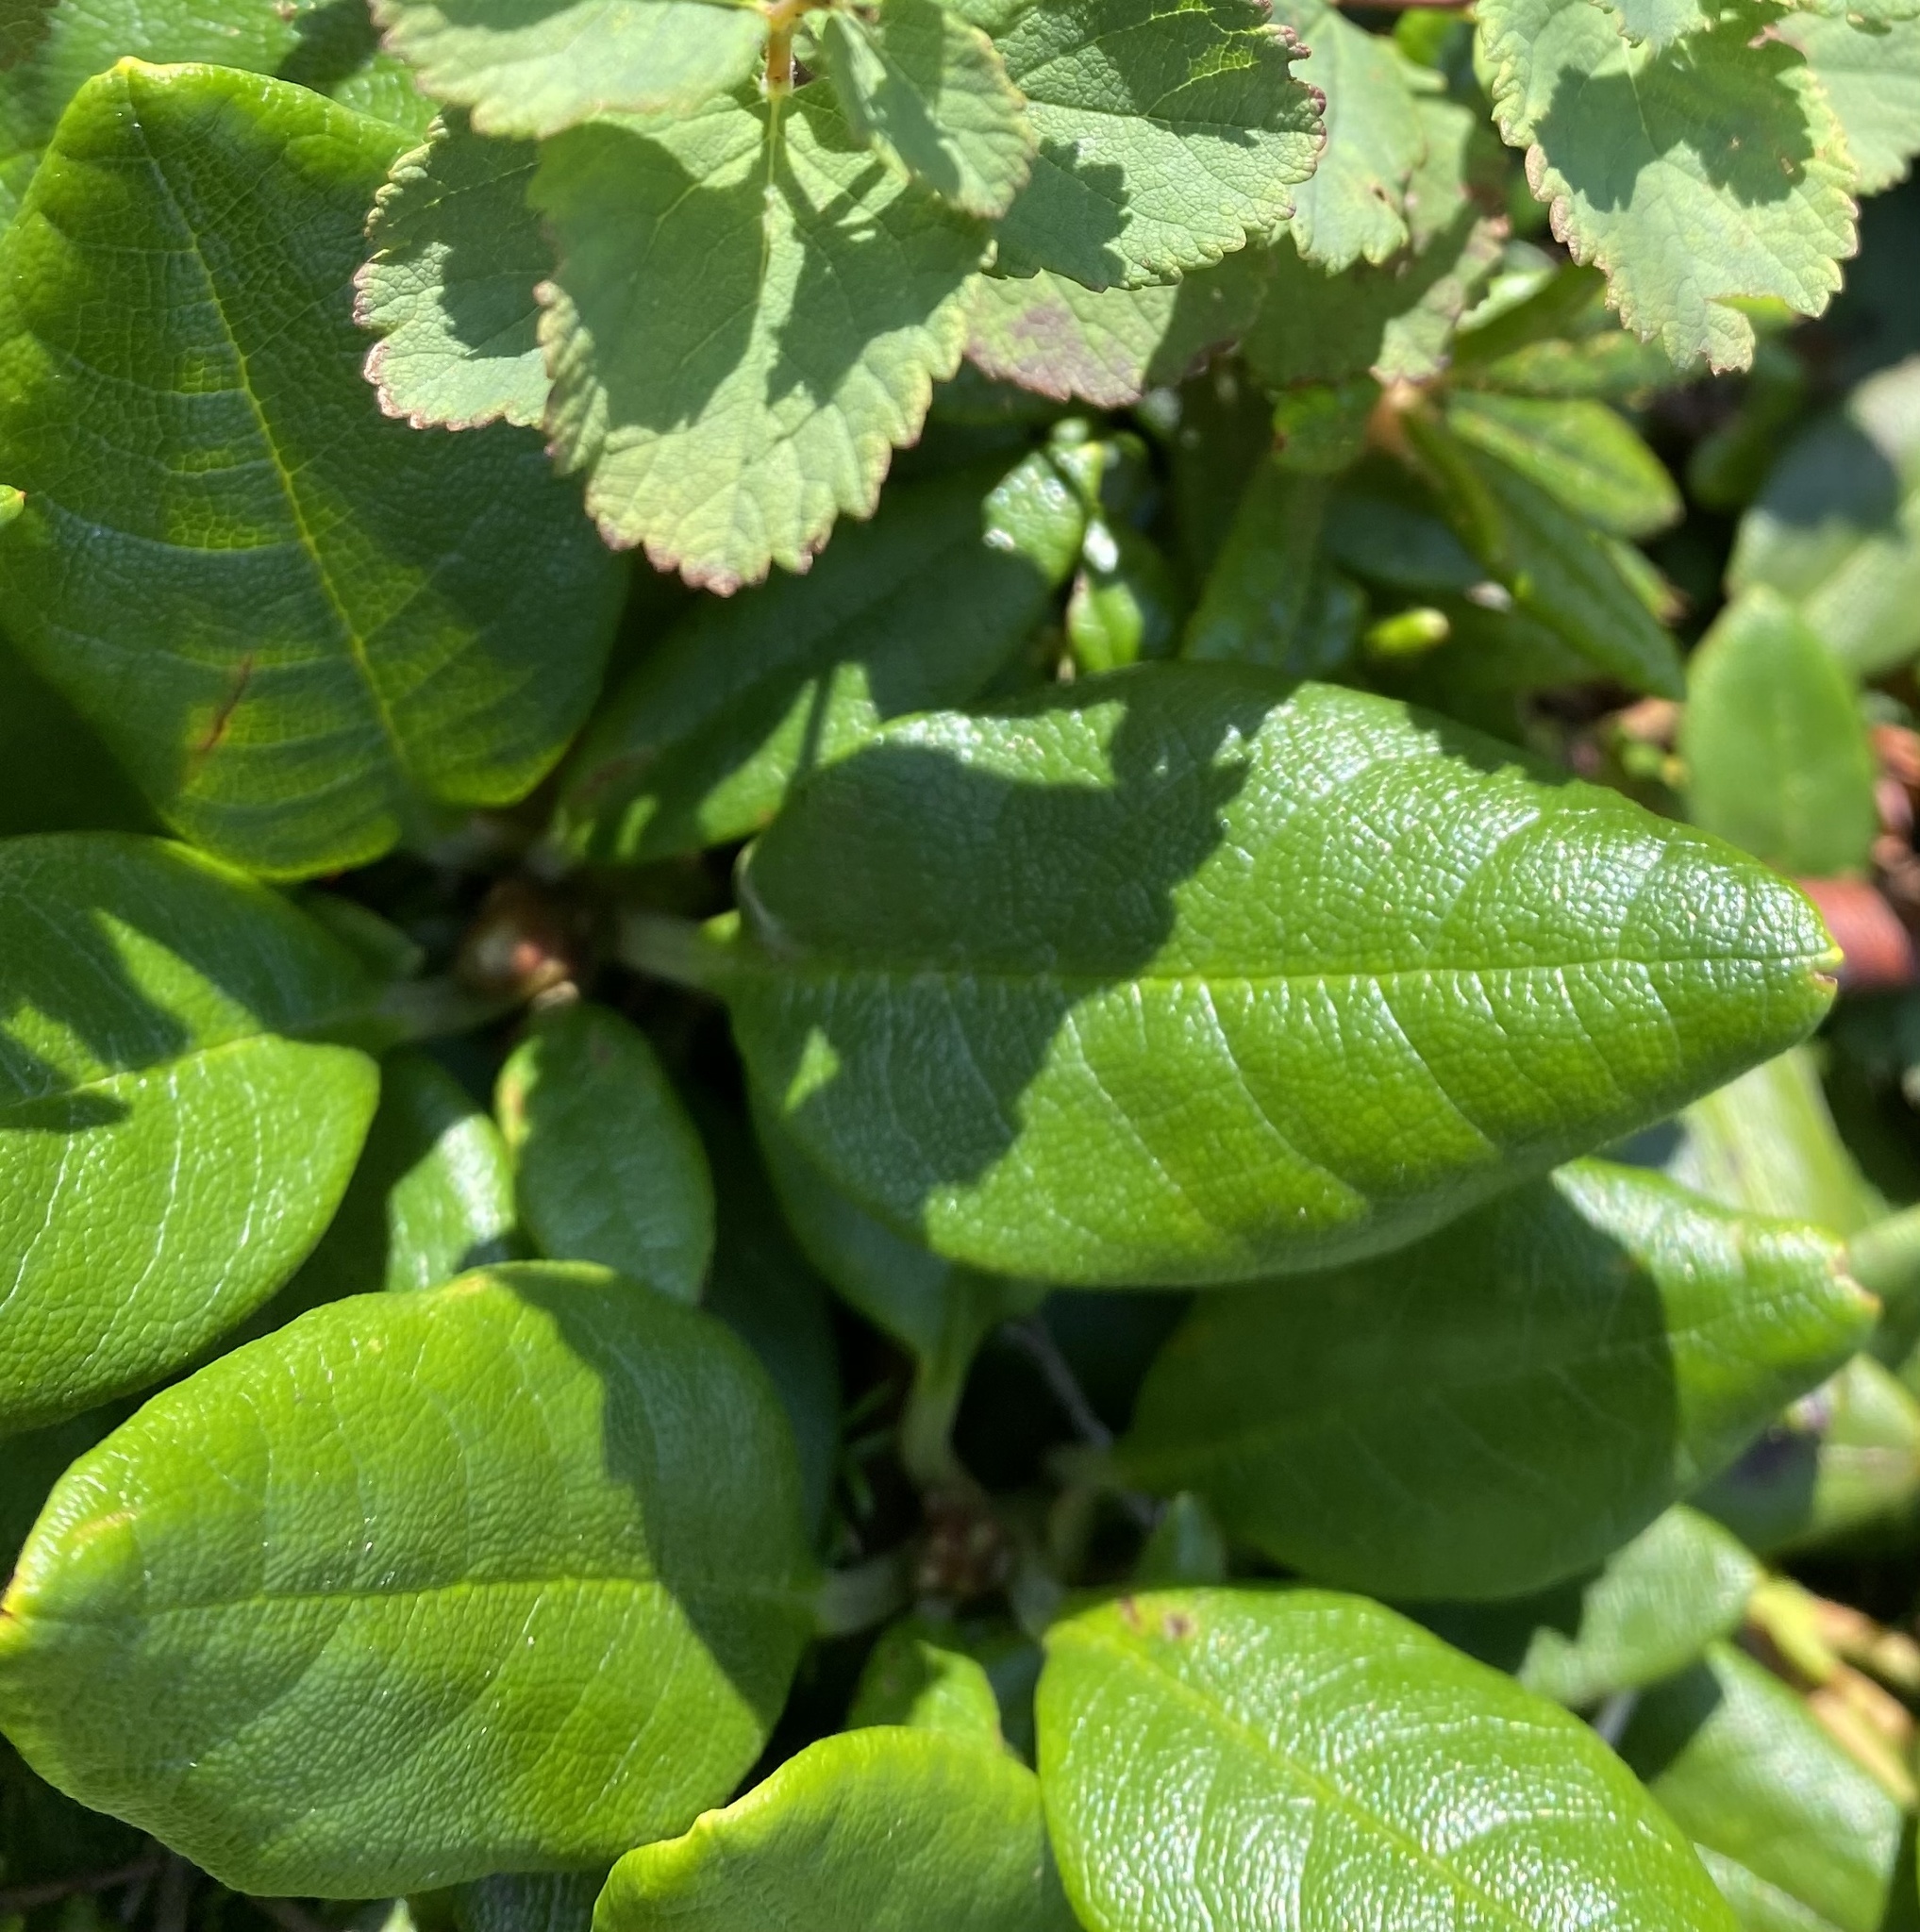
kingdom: Plantae
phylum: Tracheophyta
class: Magnoliopsida
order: Ericales
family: Ericaceae
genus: Rhododendron
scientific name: Rhododendron aureum
